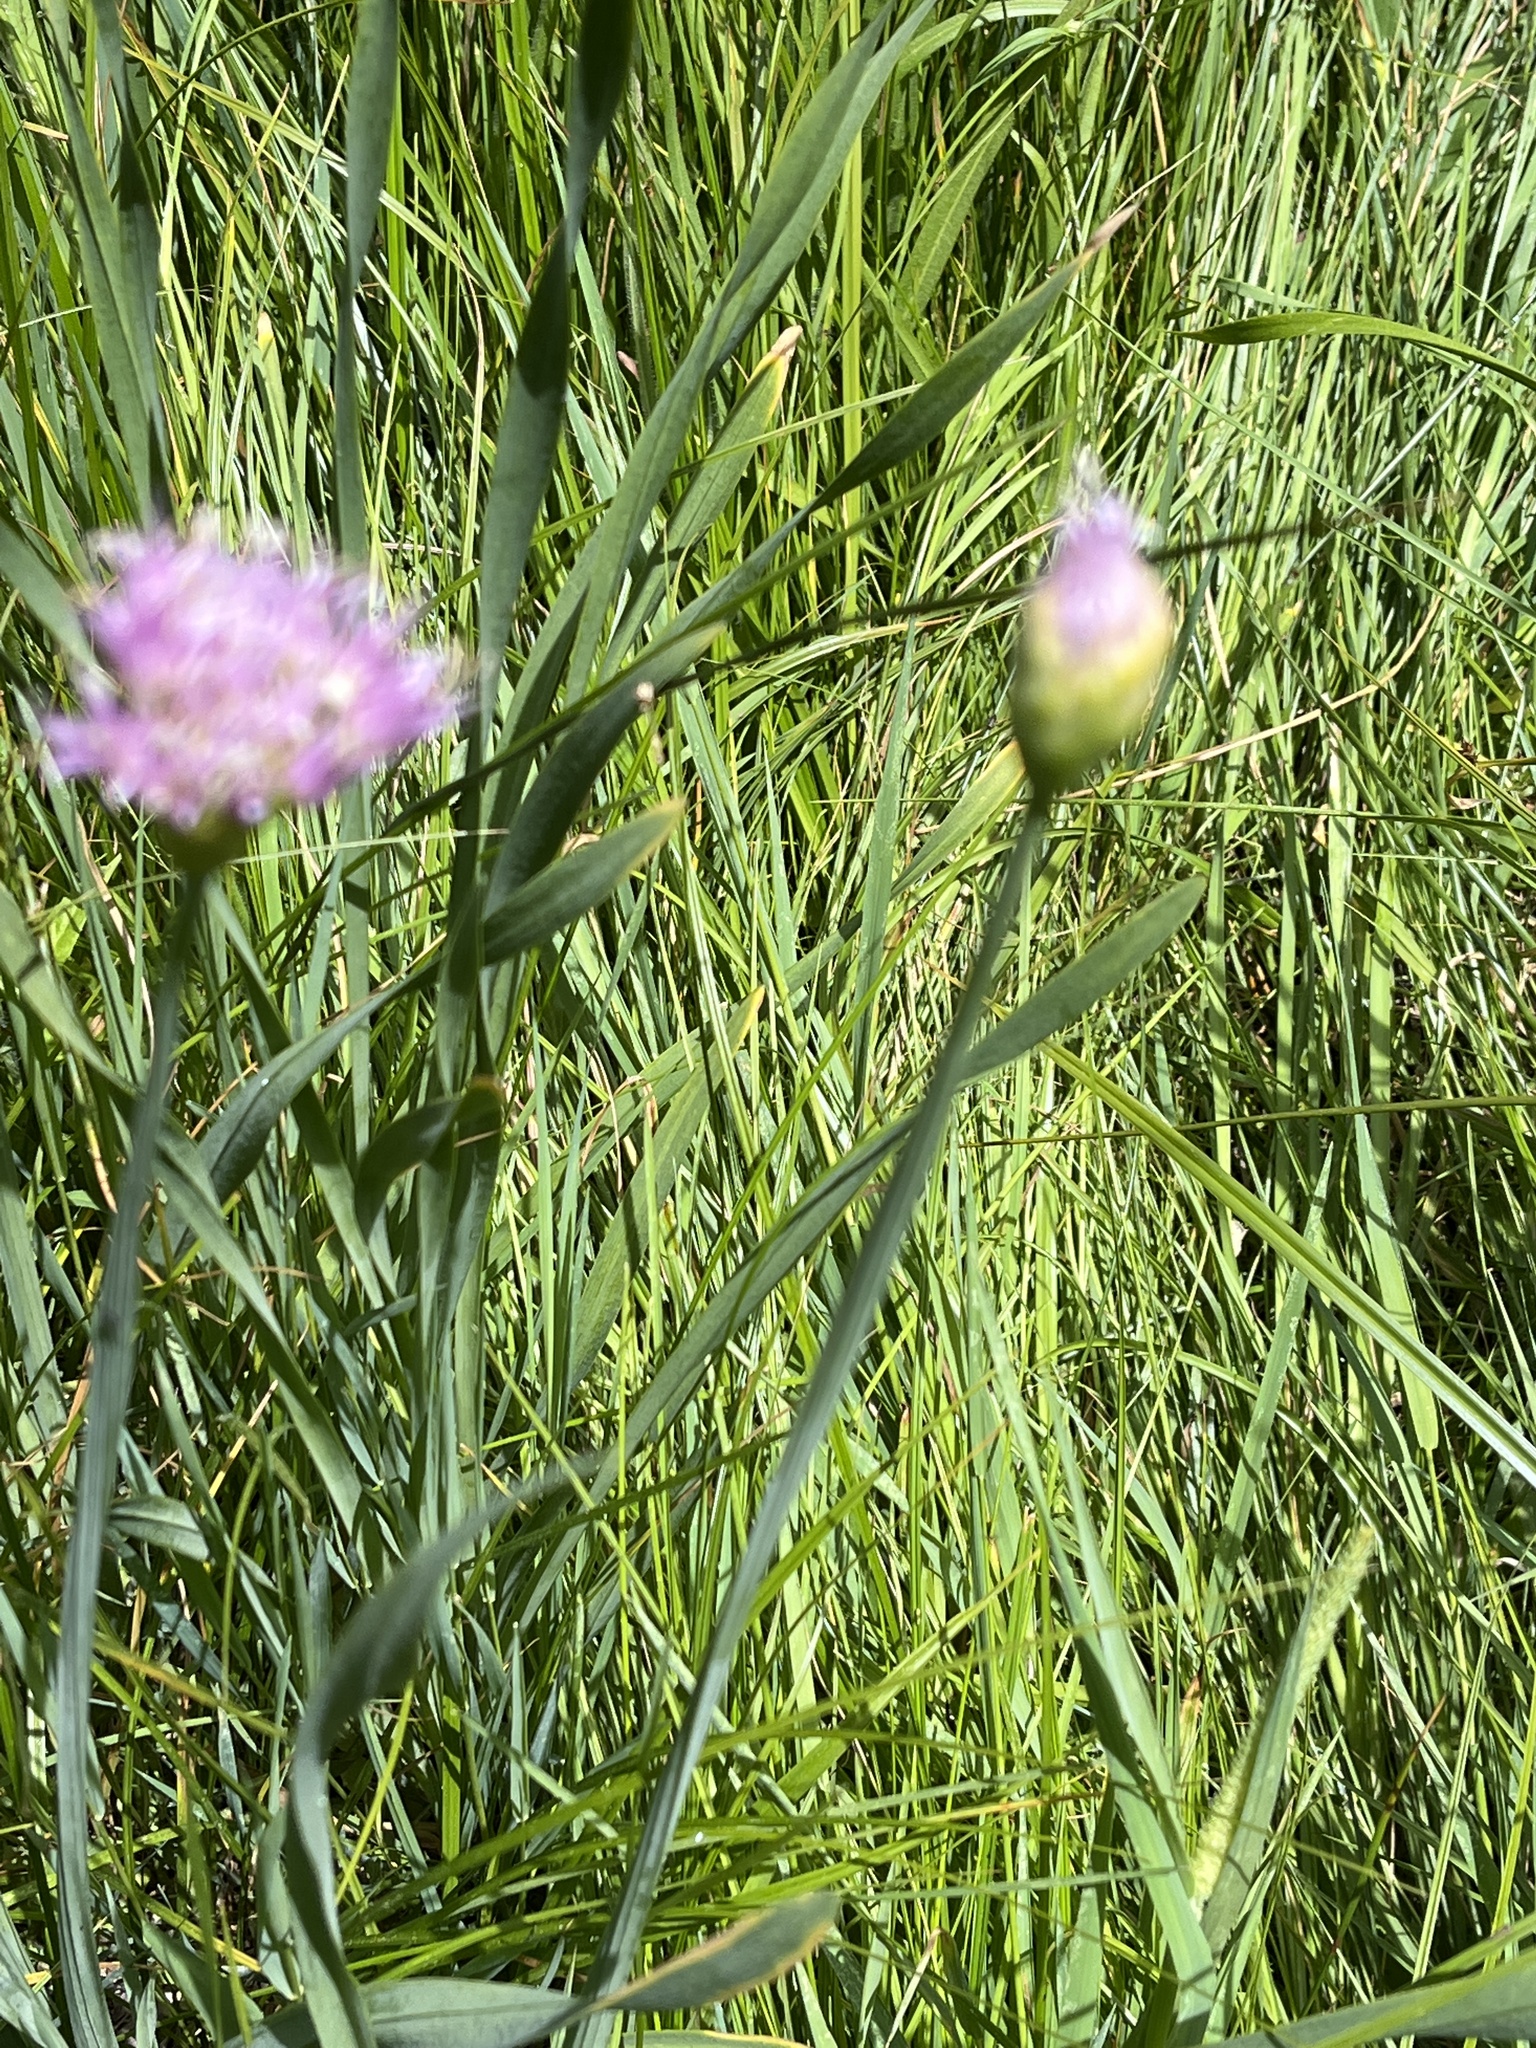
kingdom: Plantae
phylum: Tracheophyta
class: Liliopsida
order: Asparagales
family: Amaryllidaceae
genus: Allium
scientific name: Allium validum
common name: Pacific mountain onion
